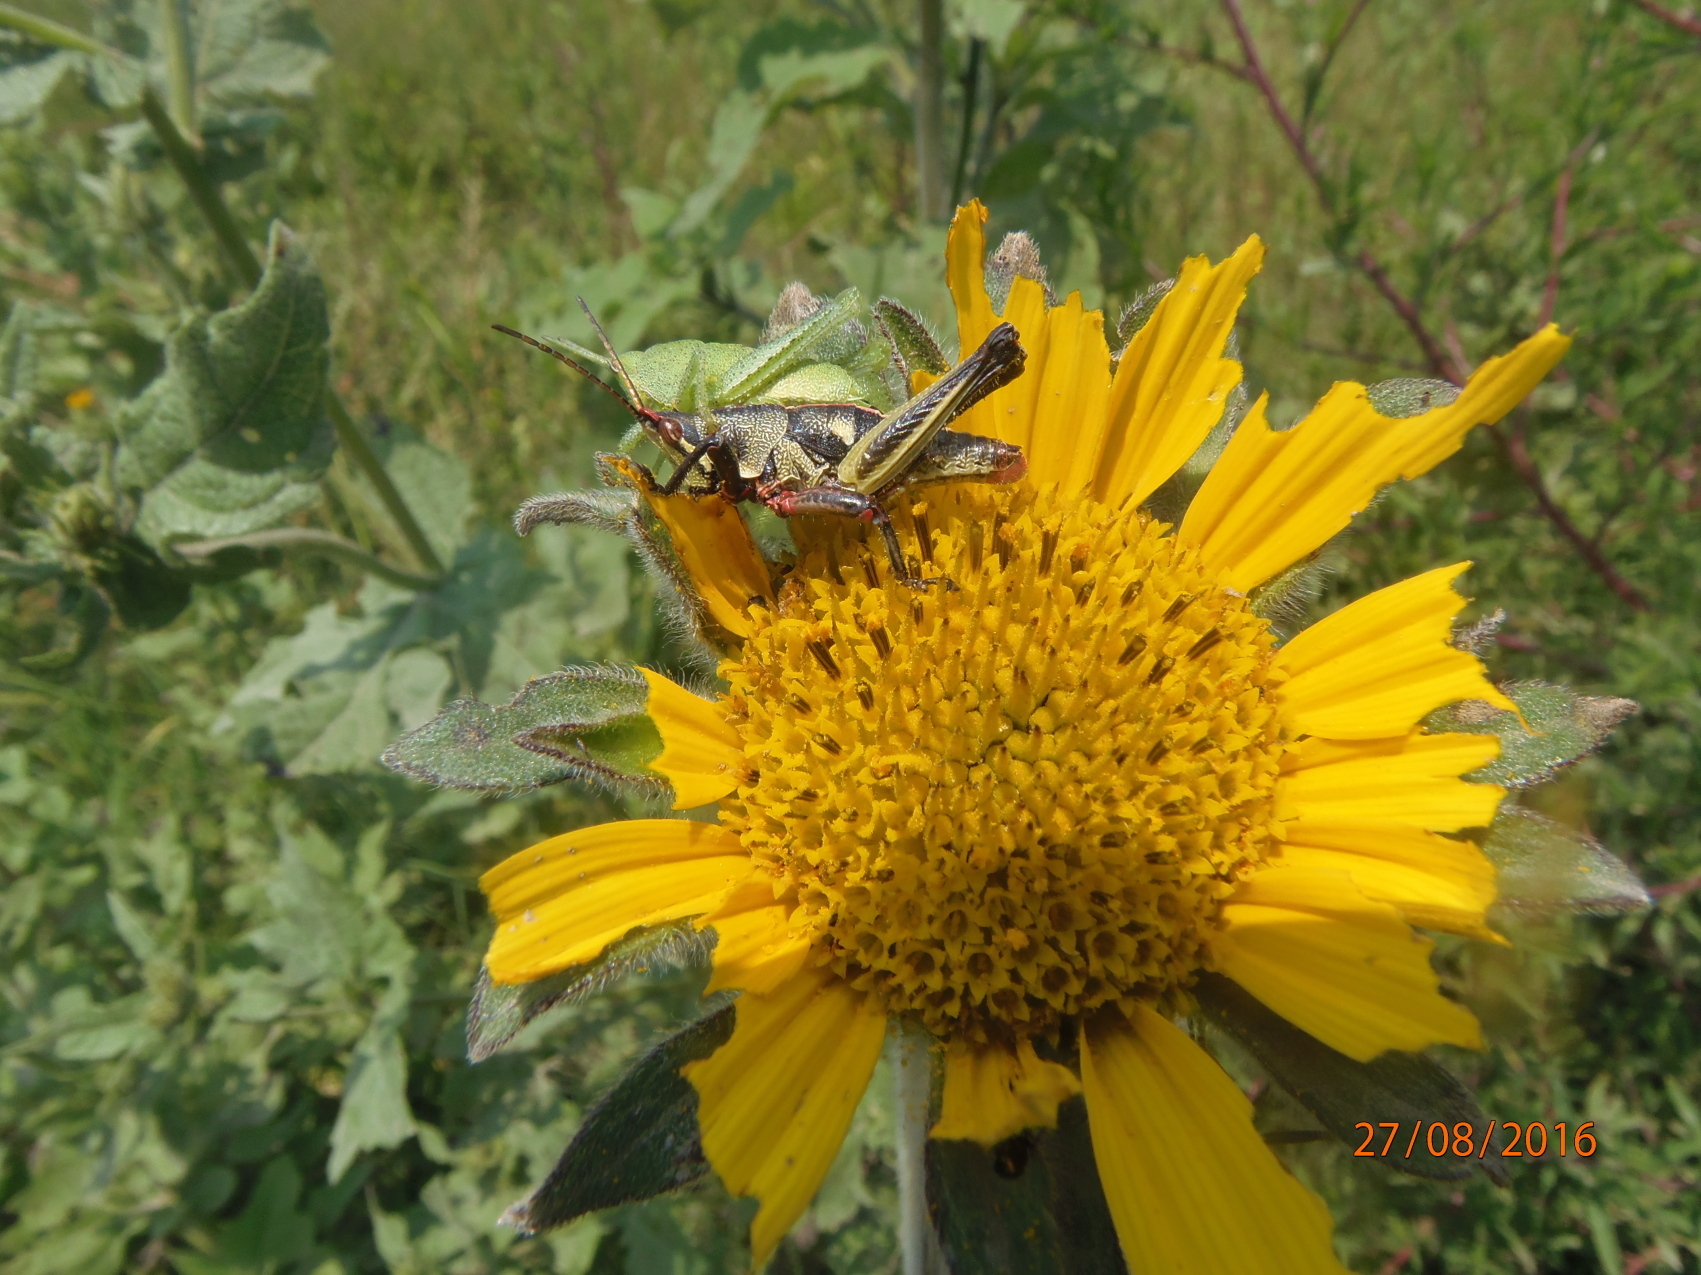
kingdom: Animalia
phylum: Arthropoda
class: Insecta
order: Orthoptera
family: Pyrgomorphidae
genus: Sphenarium
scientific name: Sphenarium purpurascens
